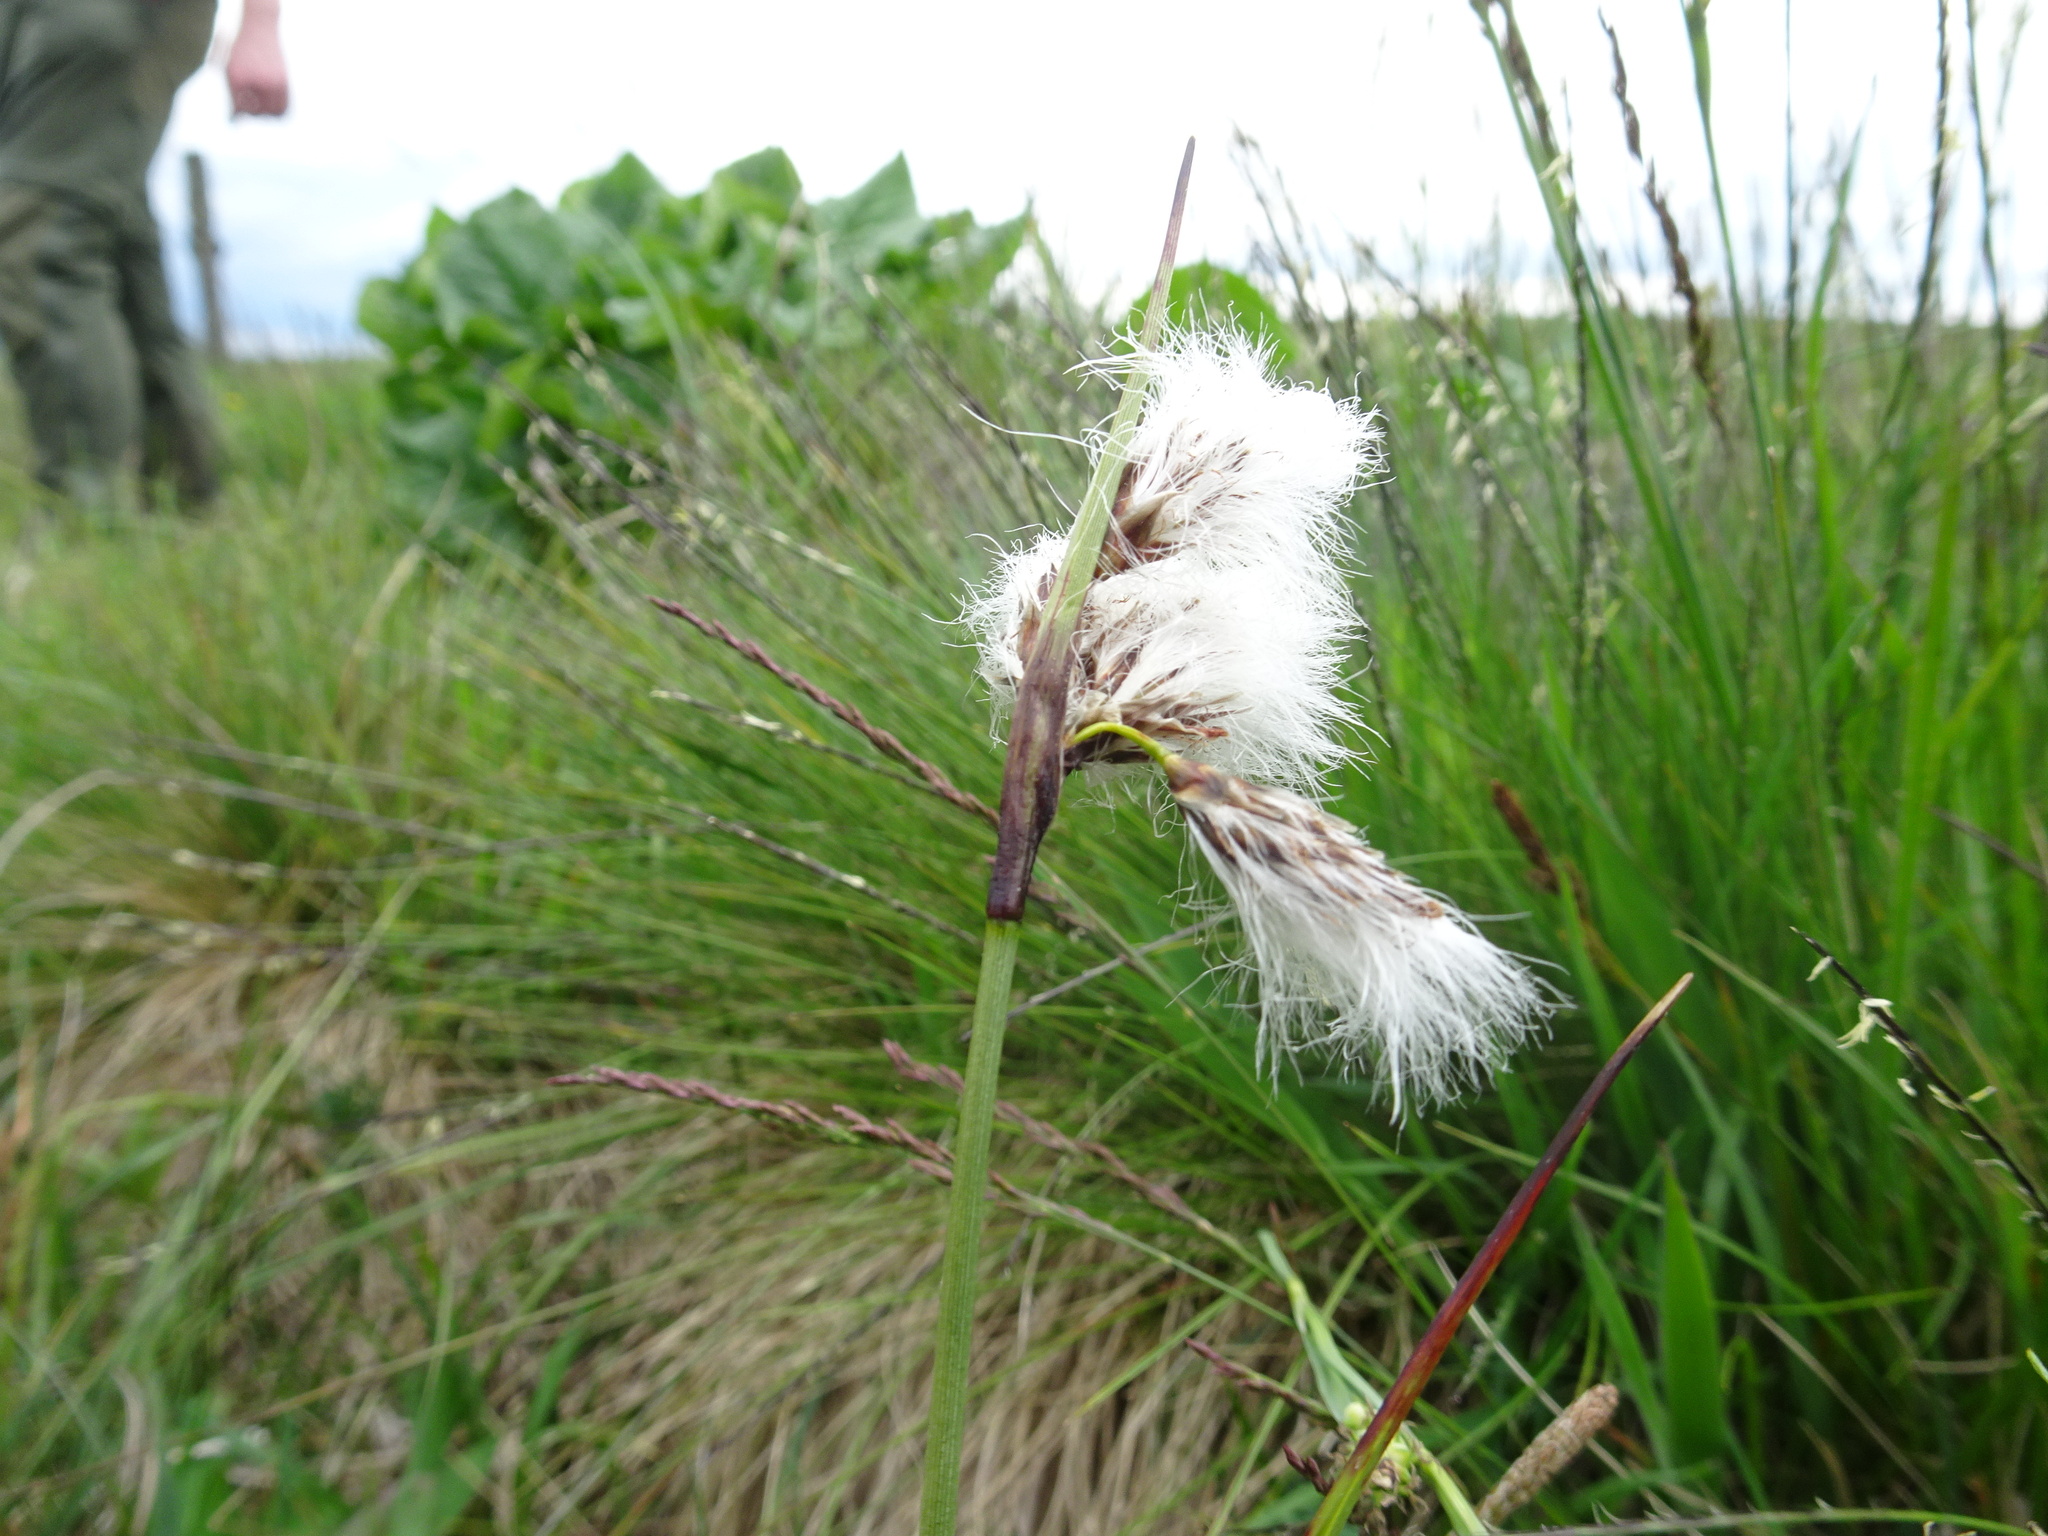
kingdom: Plantae
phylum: Tracheophyta
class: Liliopsida
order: Poales
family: Cyperaceae
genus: Eriophorum
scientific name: Eriophorum angustifolium
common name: Common cottongrass
